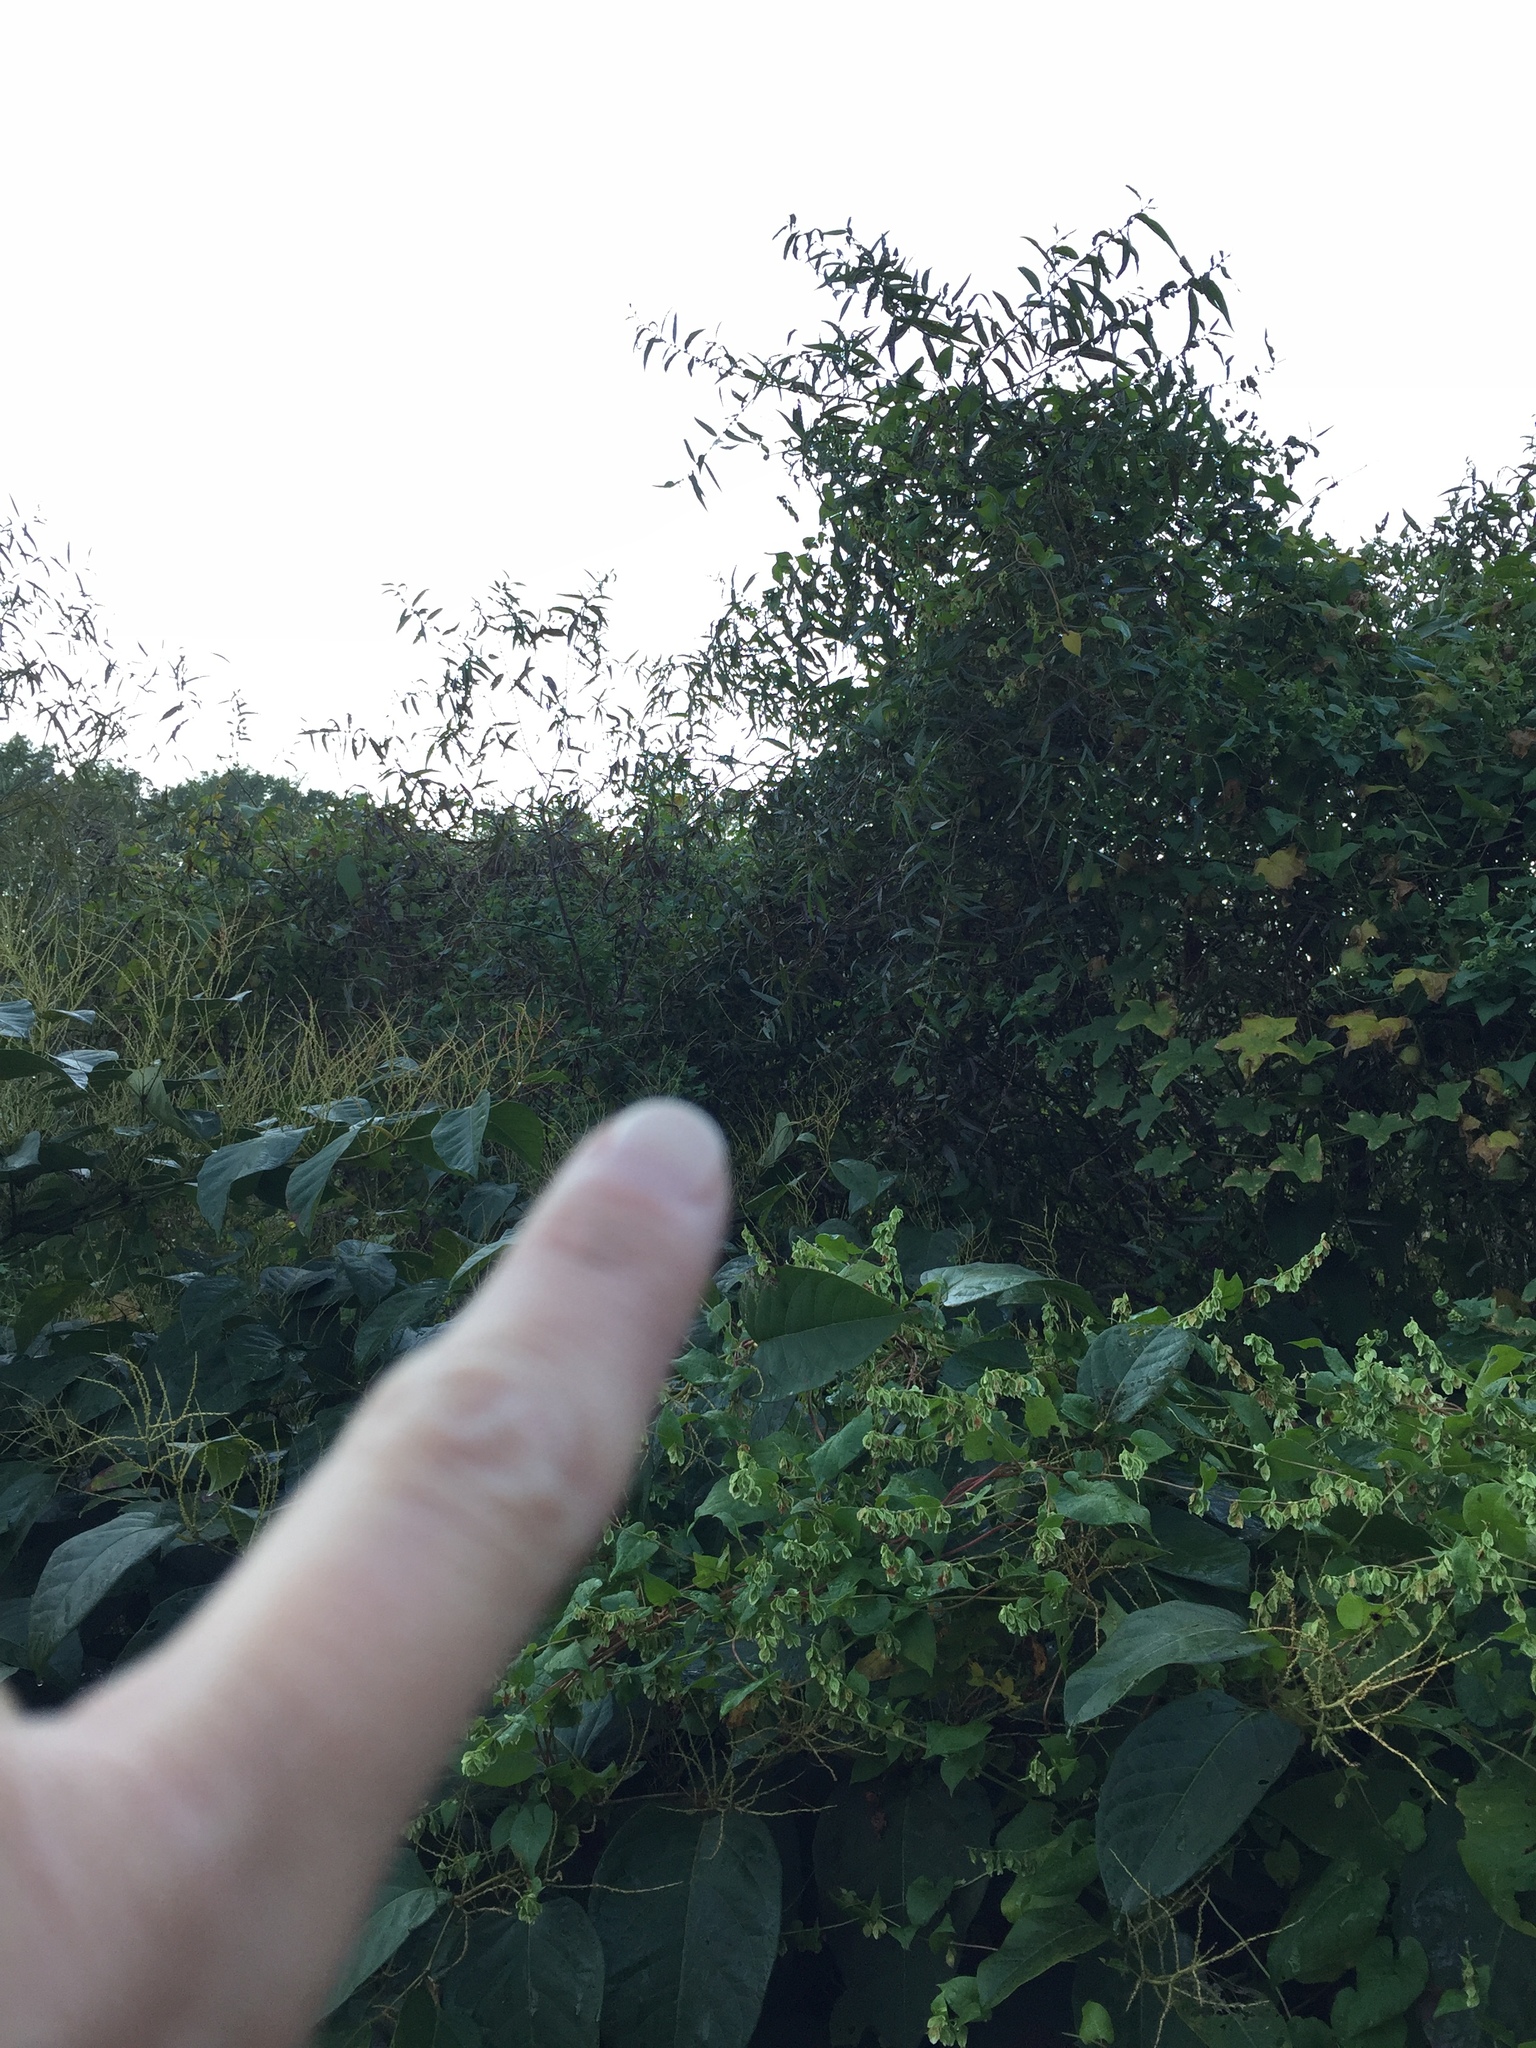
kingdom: Plantae
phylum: Tracheophyta
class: Magnoliopsida
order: Caryophyllales
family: Polygonaceae
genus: Persicaria
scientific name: Persicaria perfoliata
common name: Asiatic tearthumb
